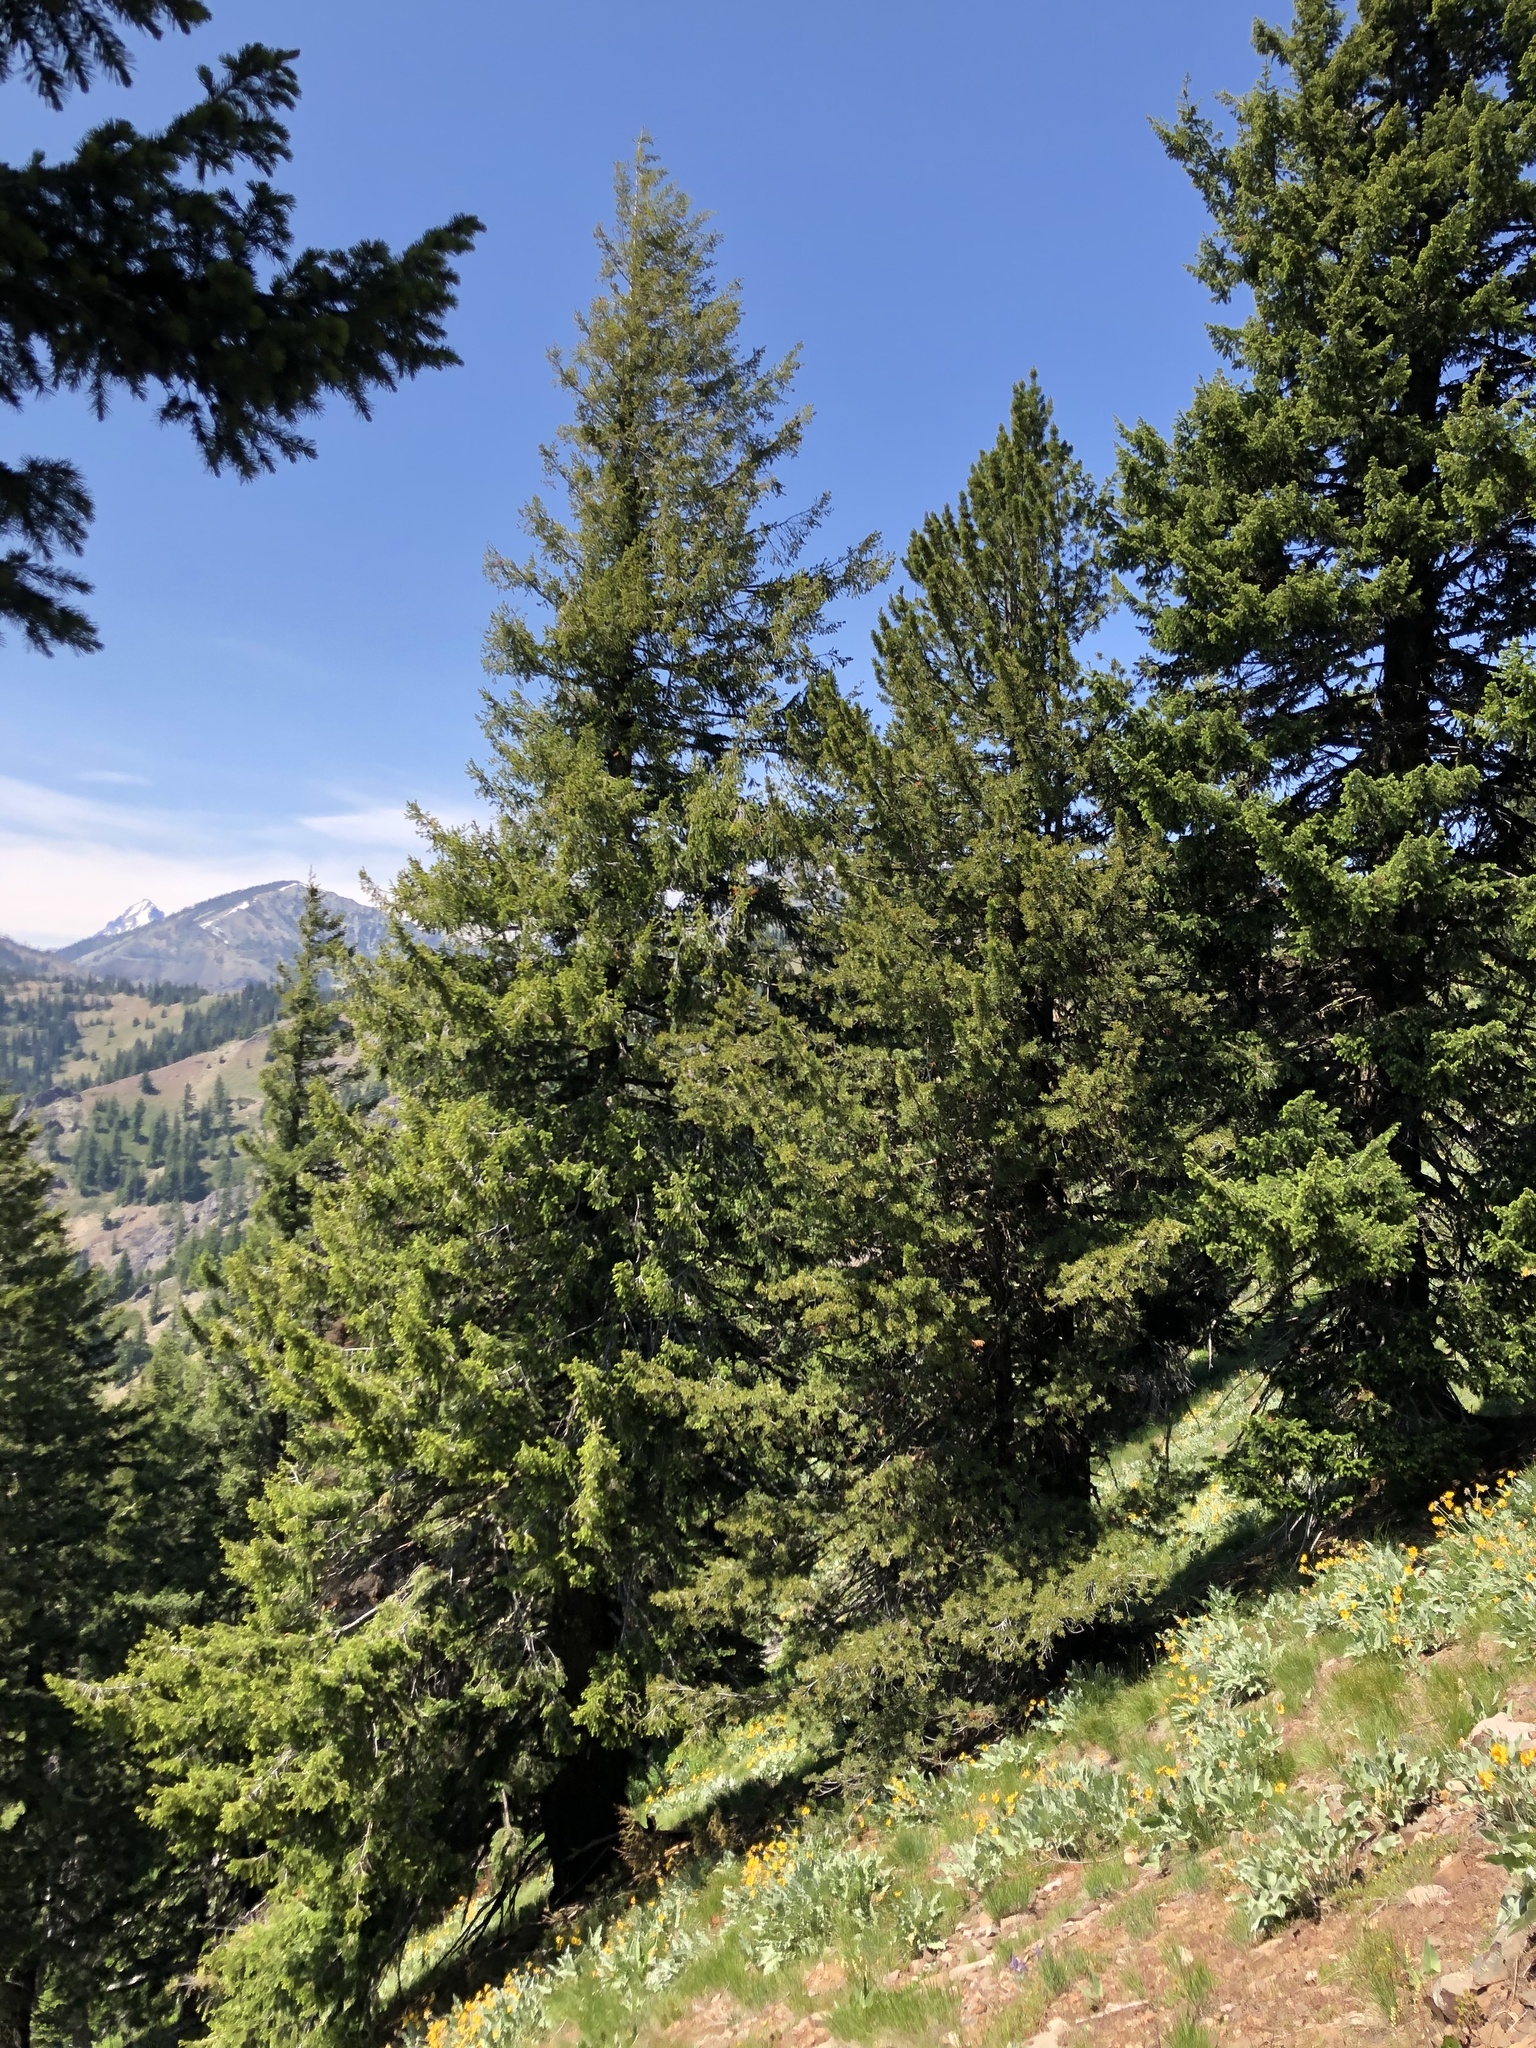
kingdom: Plantae
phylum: Tracheophyta
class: Pinopsida
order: Pinales
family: Pinaceae
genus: Pseudotsuga
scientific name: Pseudotsuga menziesii
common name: Douglas fir
